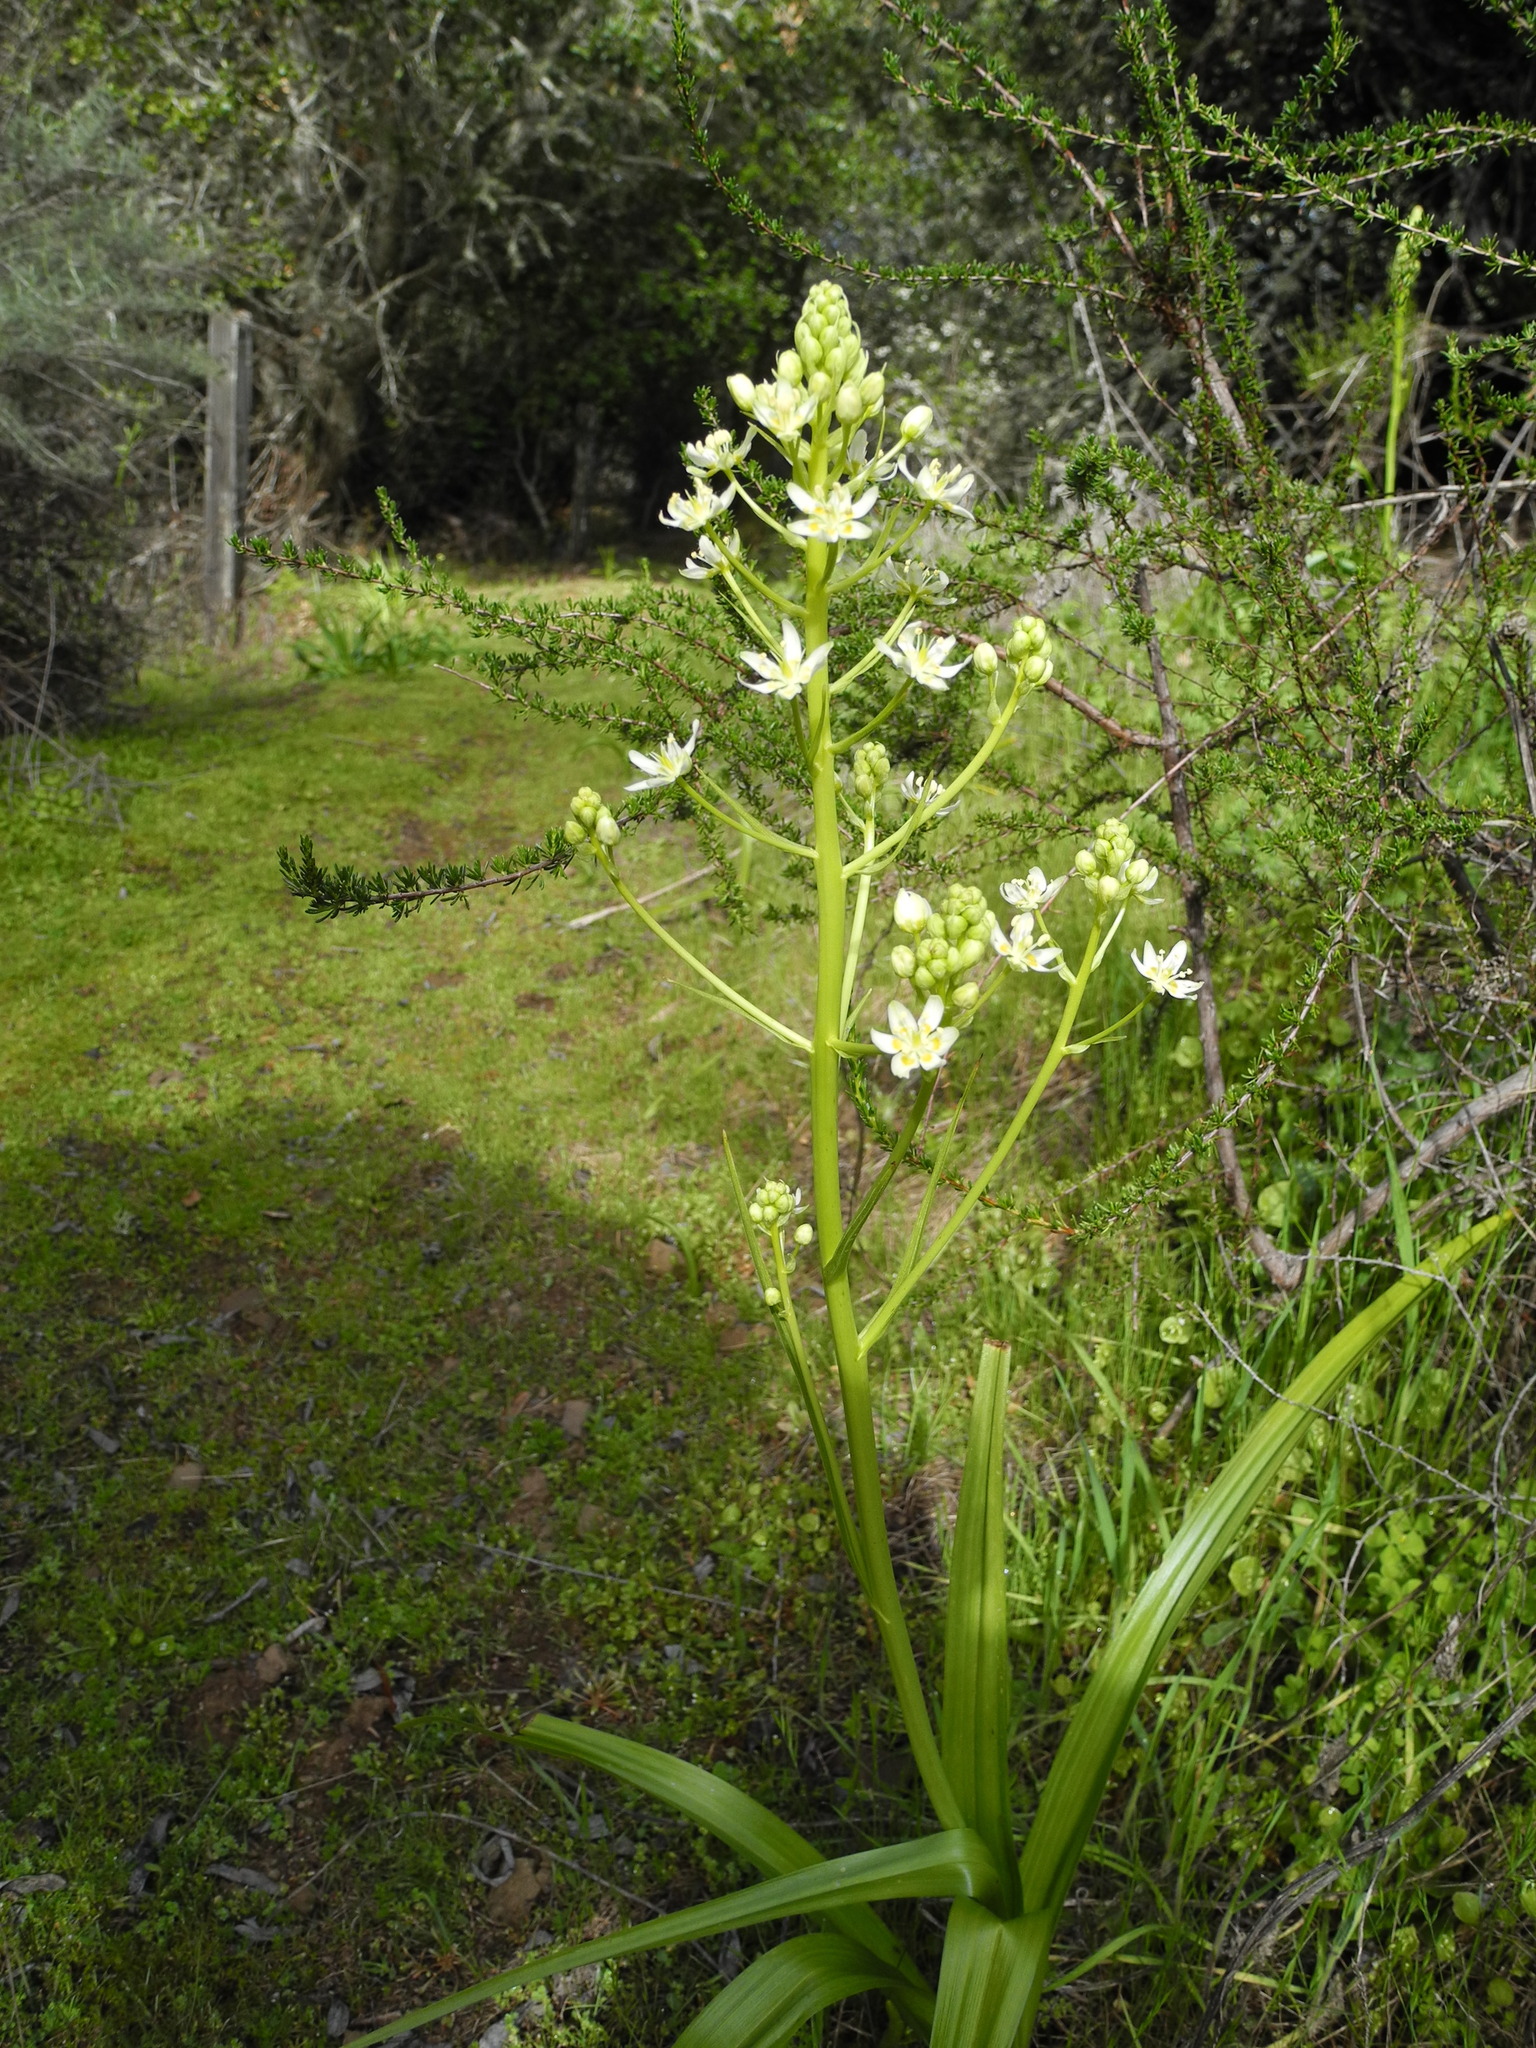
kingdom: Plantae
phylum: Tracheophyta
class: Liliopsida
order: Liliales
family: Melanthiaceae
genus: Toxicoscordion
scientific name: Toxicoscordion fremontii
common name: Fremont's death camas
